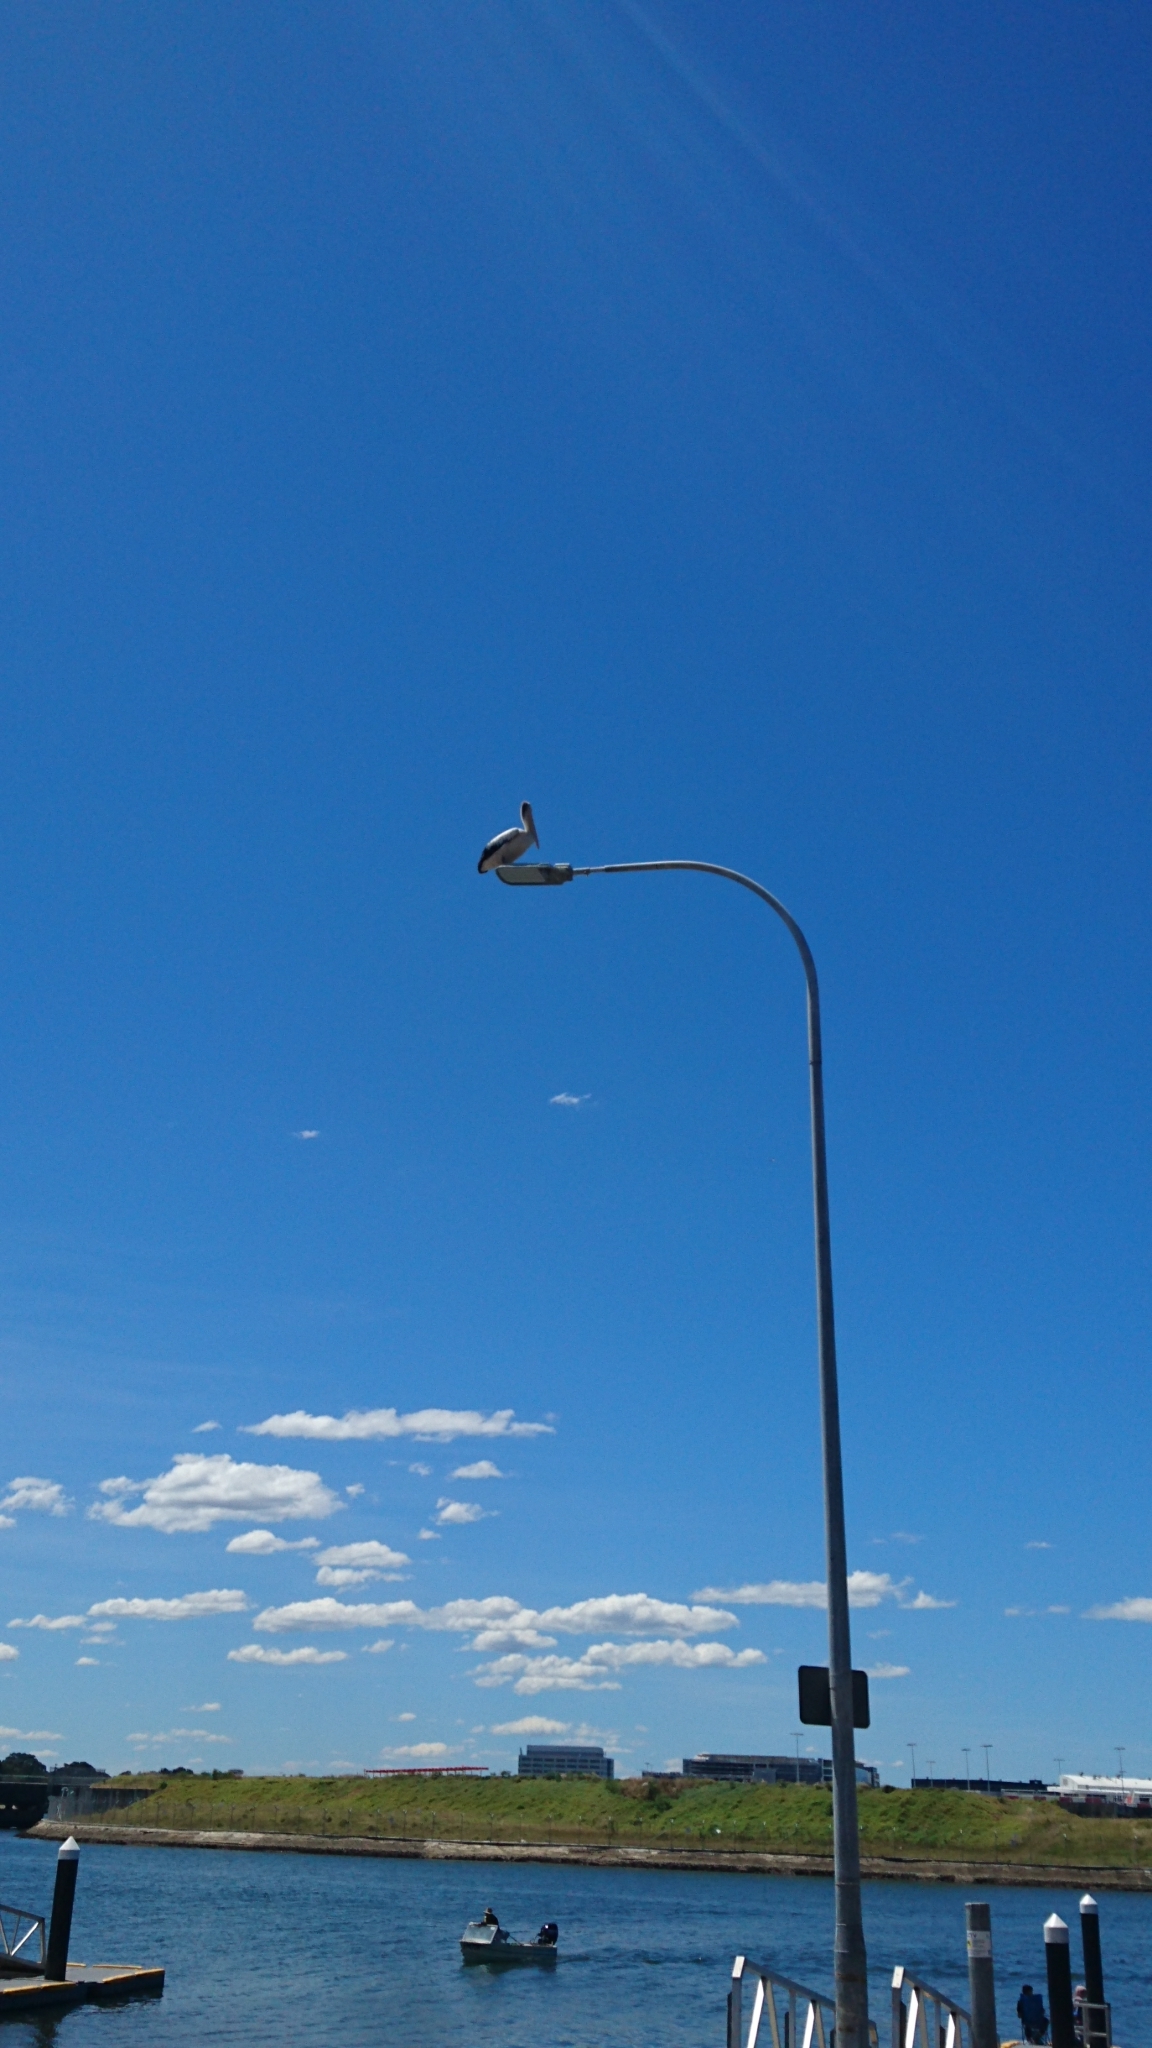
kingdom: Animalia
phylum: Chordata
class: Aves
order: Pelecaniformes
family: Pelecanidae
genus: Pelecanus
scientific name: Pelecanus conspicillatus
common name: Australian pelican
